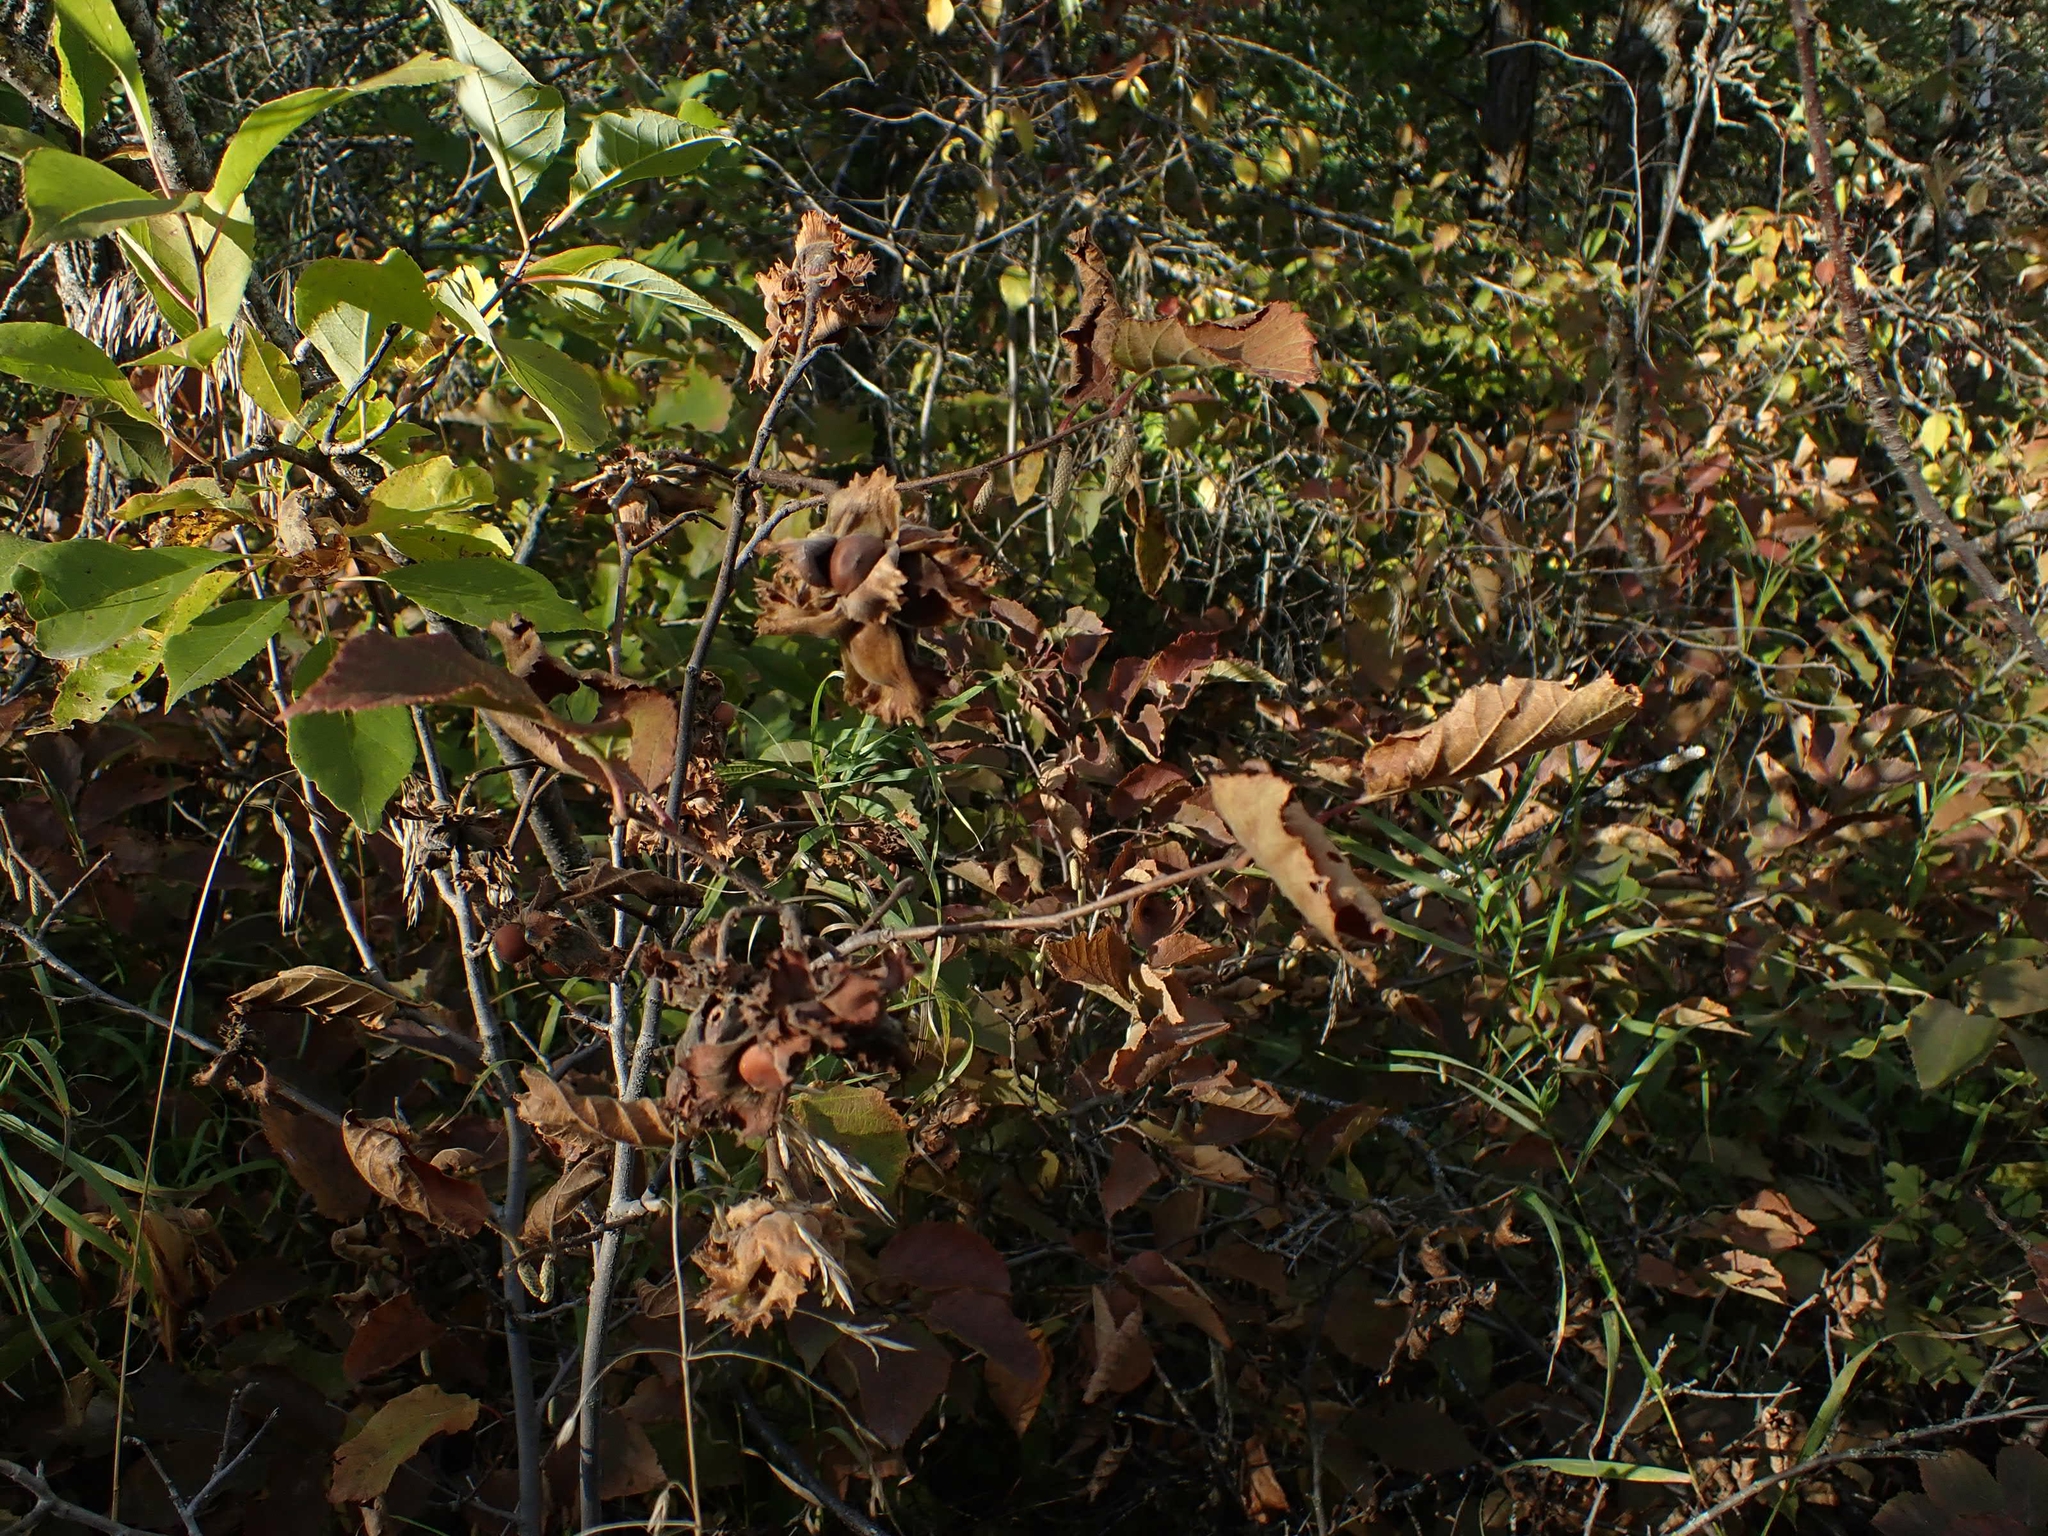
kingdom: Plantae
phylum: Tracheophyta
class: Magnoliopsida
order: Fagales
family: Betulaceae
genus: Corylus
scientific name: Corylus americana
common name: American hazel
